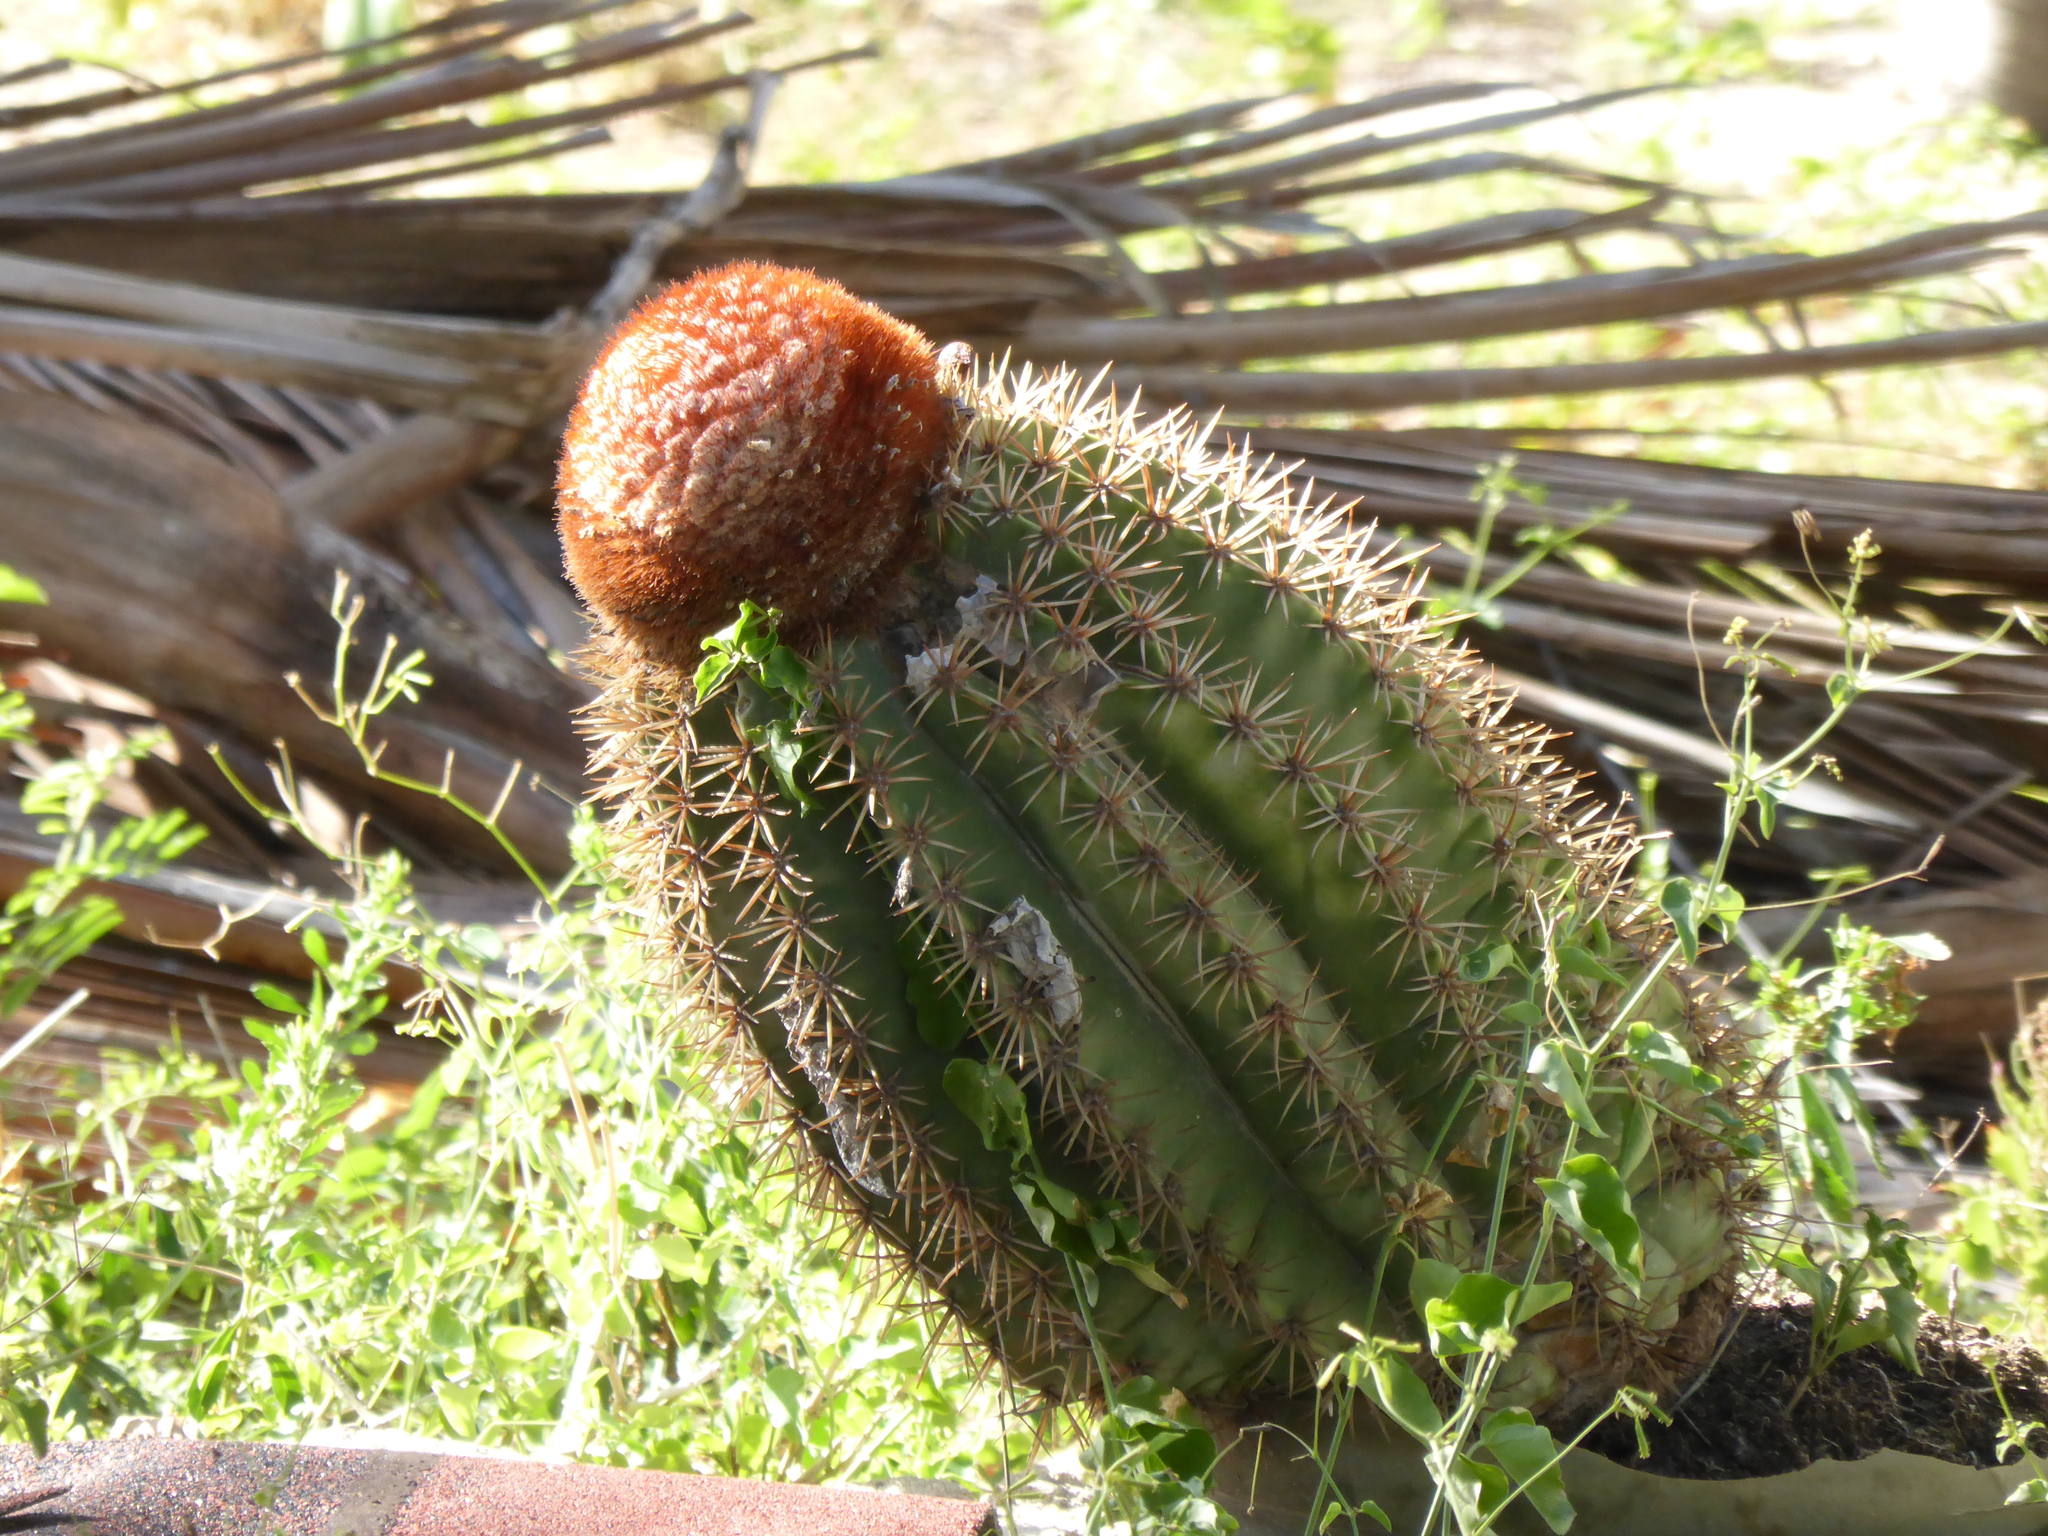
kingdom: Plantae
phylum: Tracheophyta
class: Magnoliopsida
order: Caryophyllales
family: Cactaceae
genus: Melocactus
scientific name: Melocactus intortus
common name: Barrel cactus
